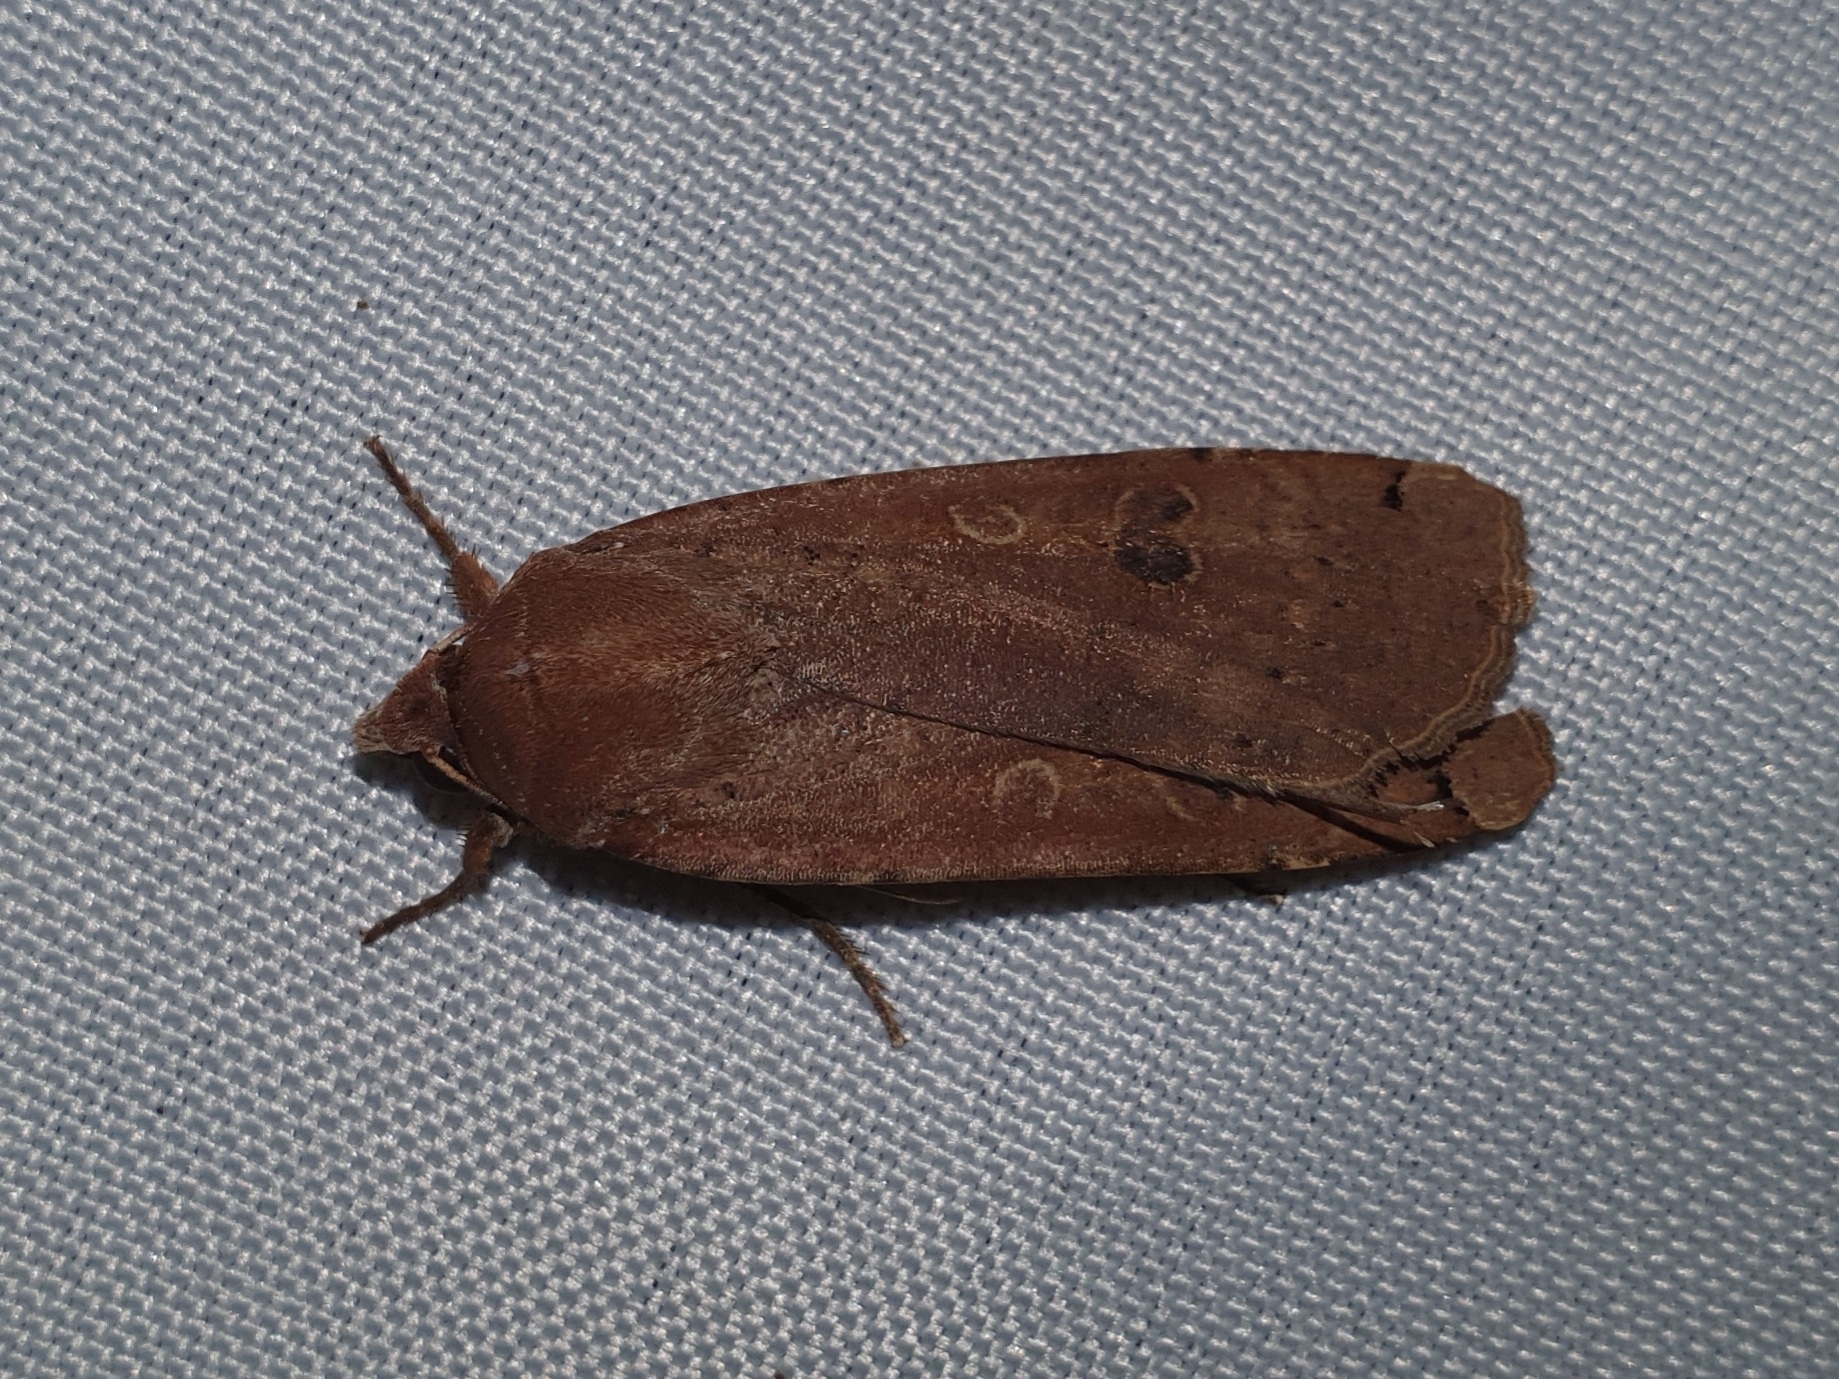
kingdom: Animalia
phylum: Arthropoda
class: Insecta
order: Lepidoptera
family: Noctuidae
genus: Noctua
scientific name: Noctua pronuba
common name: Large yellow underwing
